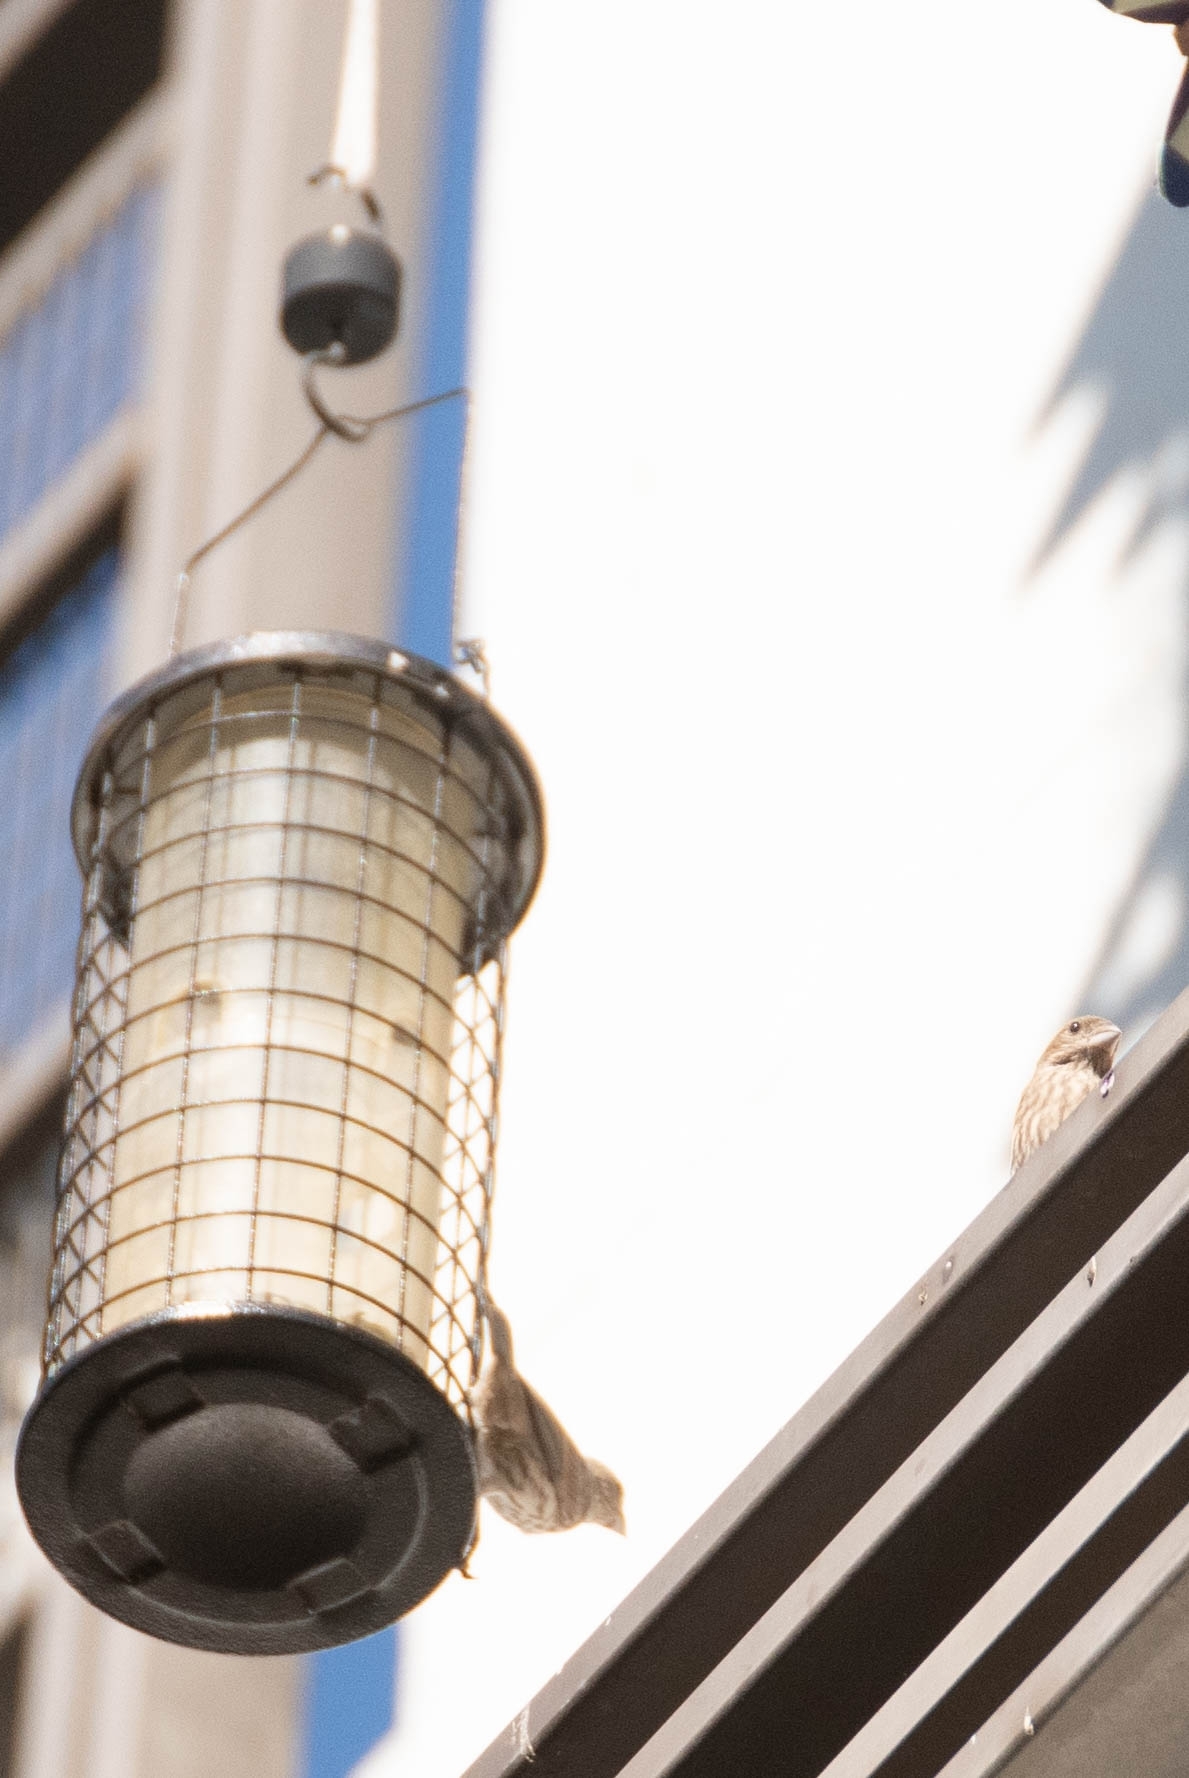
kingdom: Animalia
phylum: Chordata
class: Aves
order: Passeriformes
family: Fringillidae
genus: Haemorhous
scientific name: Haemorhous mexicanus
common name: House finch
